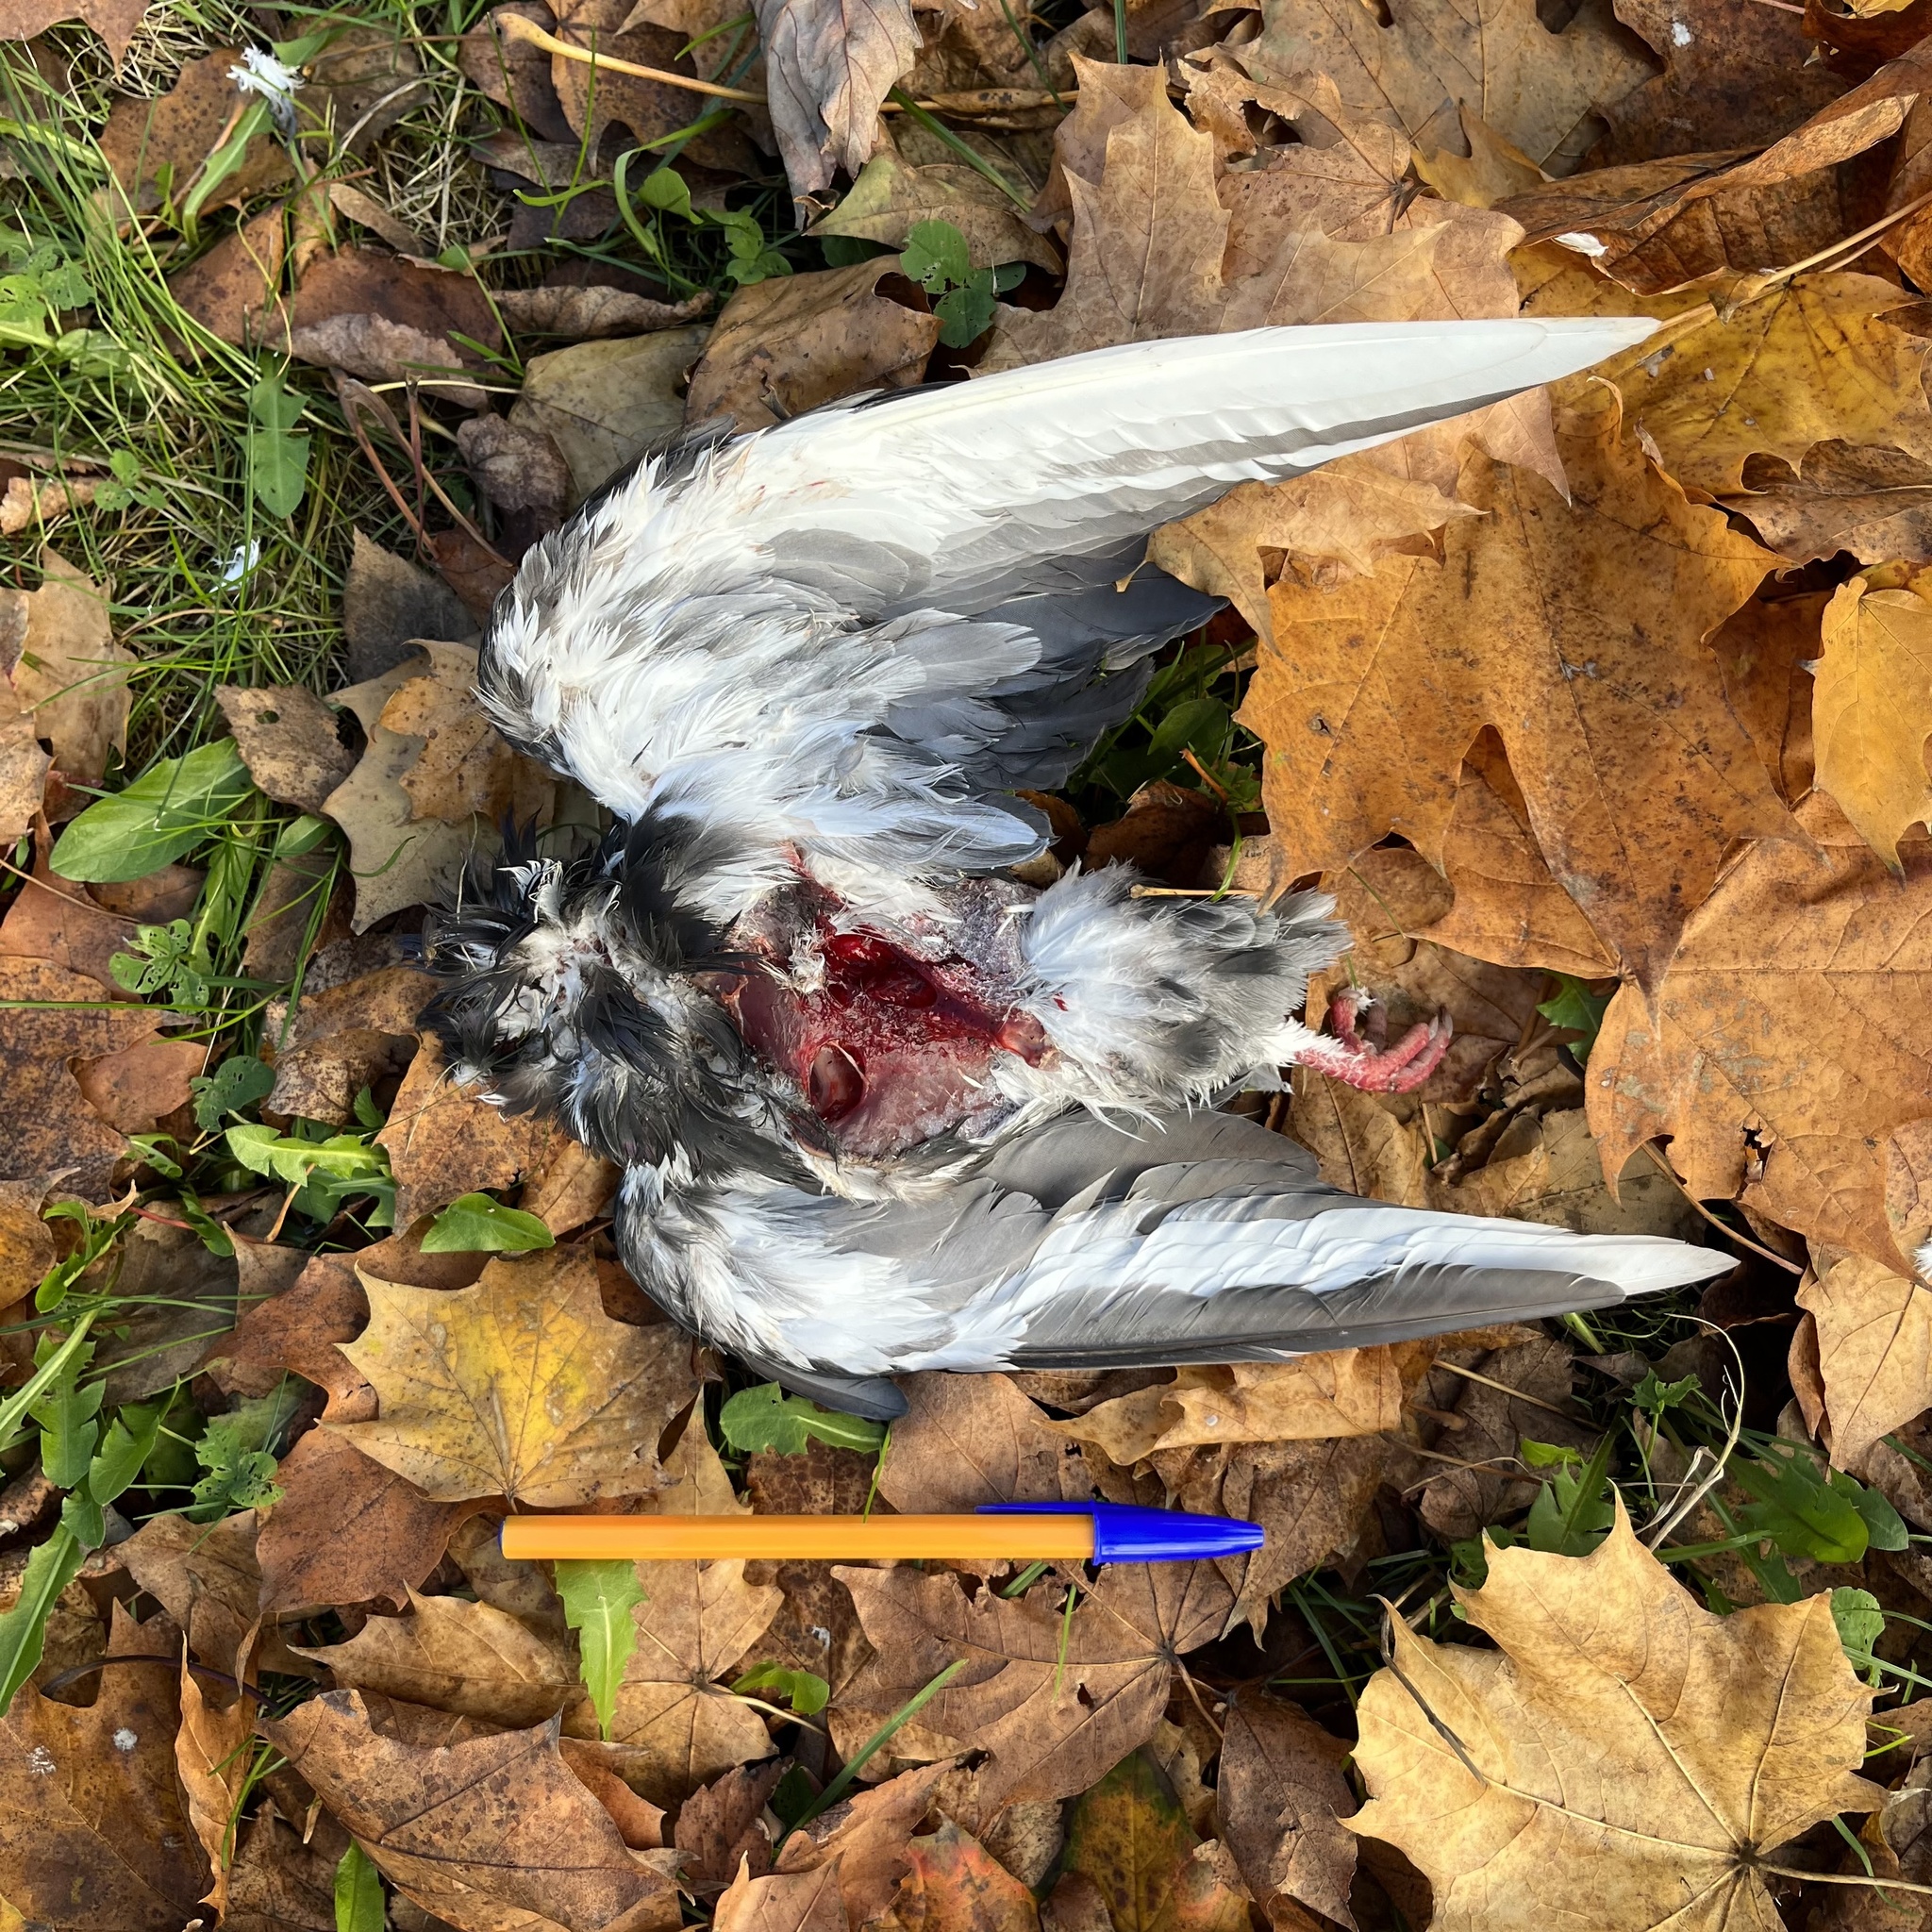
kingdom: Animalia
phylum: Chordata
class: Aves
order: Columbiformes
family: Columbidae
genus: Columba
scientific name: Columba livia
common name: Rock pigeon
